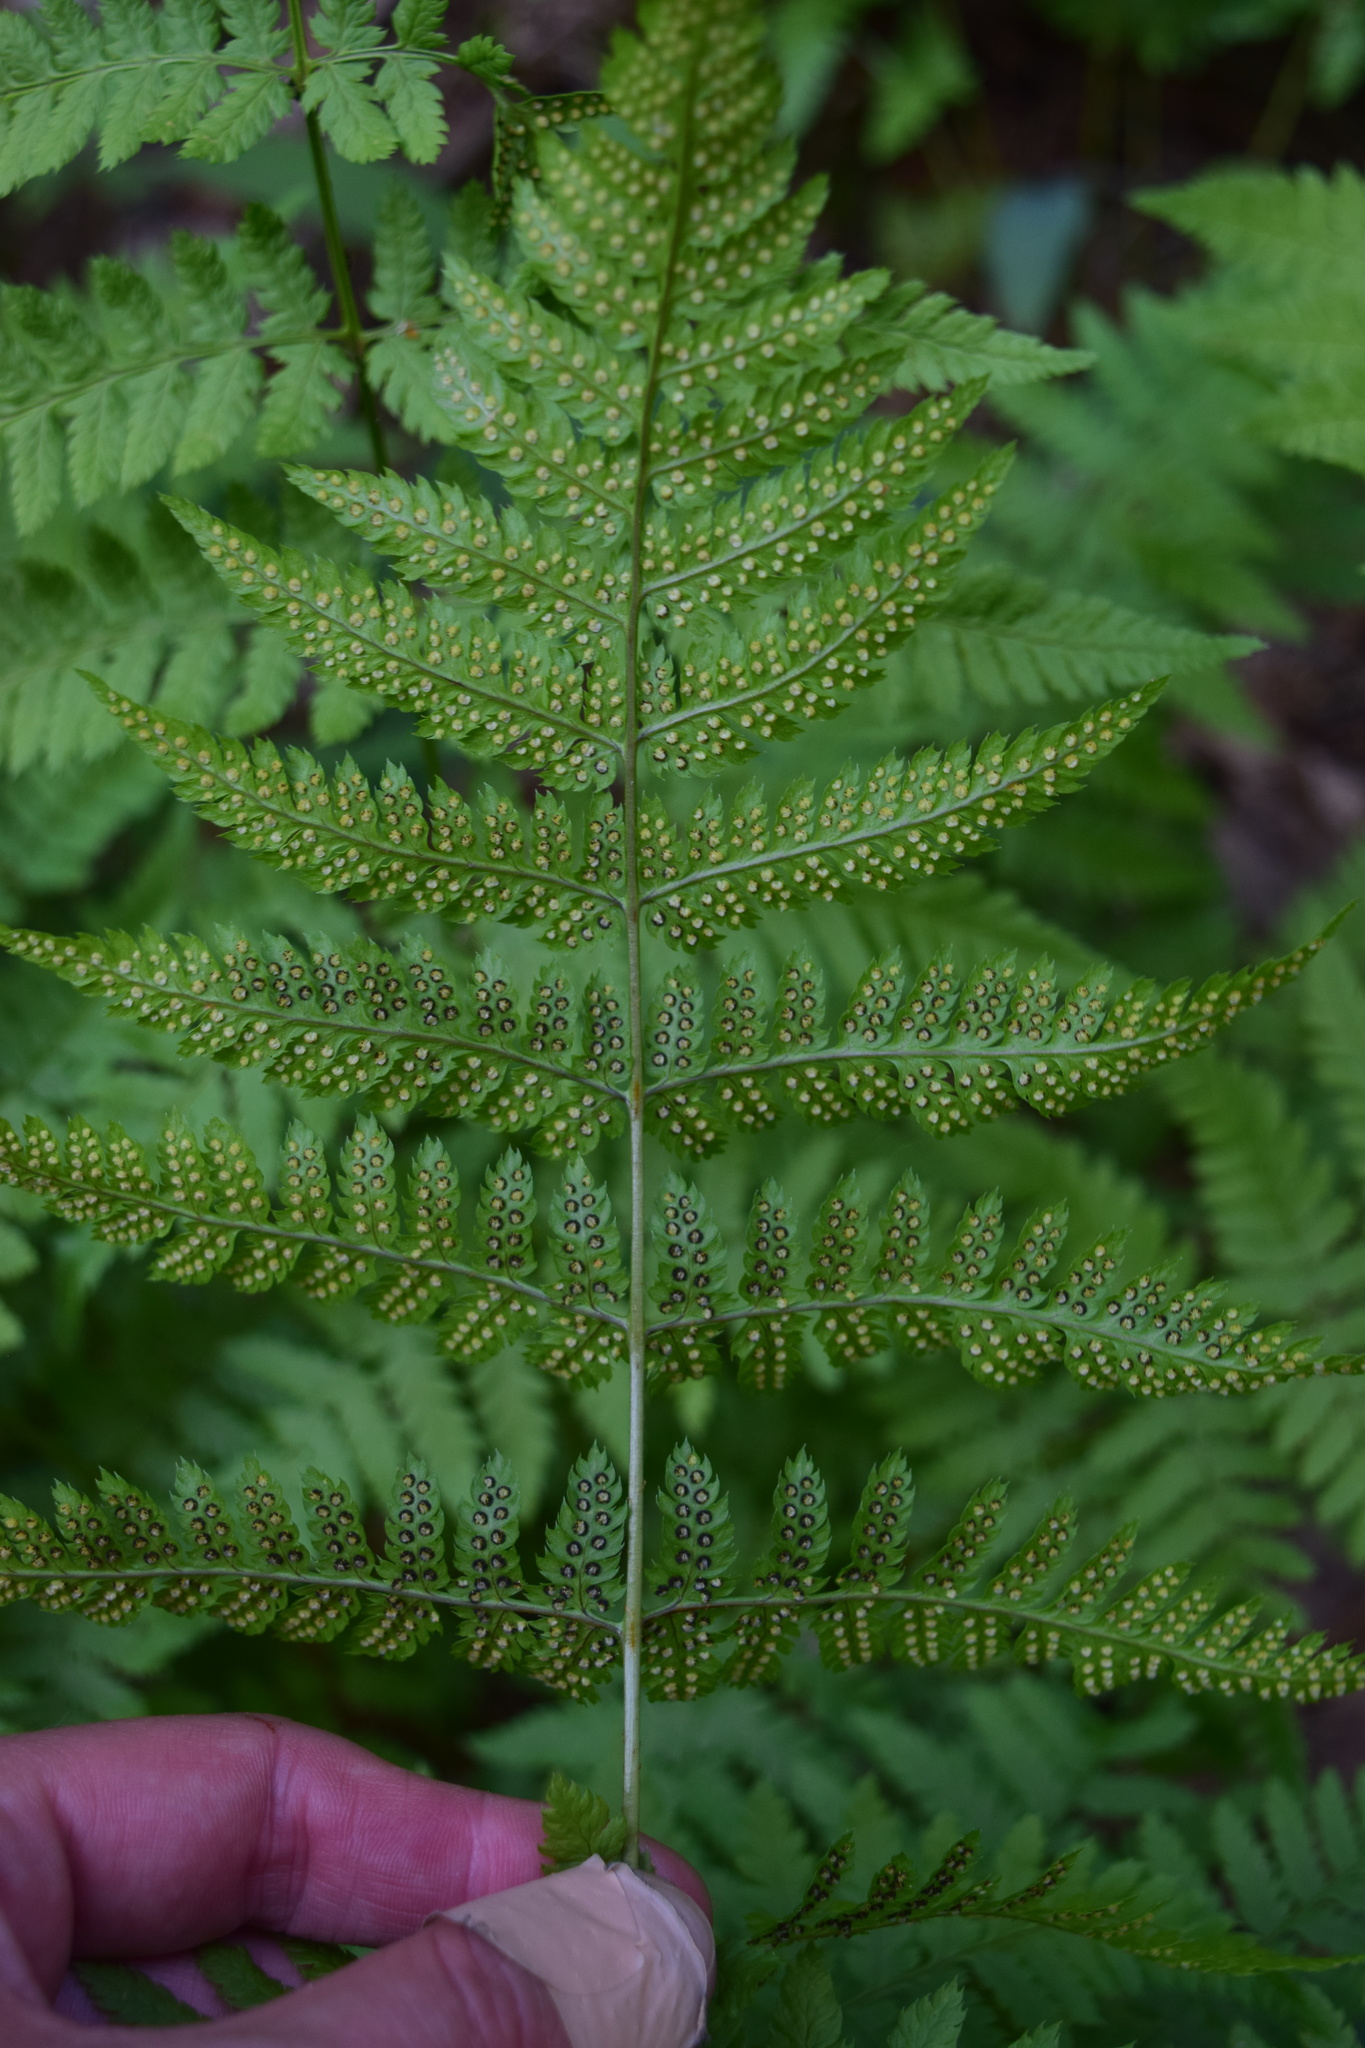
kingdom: Plantae
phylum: Tracheophyta
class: Polypodiopsida
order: Polypodiales
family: Dryopteridaceae
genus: Dryopteris
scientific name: Dryopteris carthusiana
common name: Narrow buckler-fern
